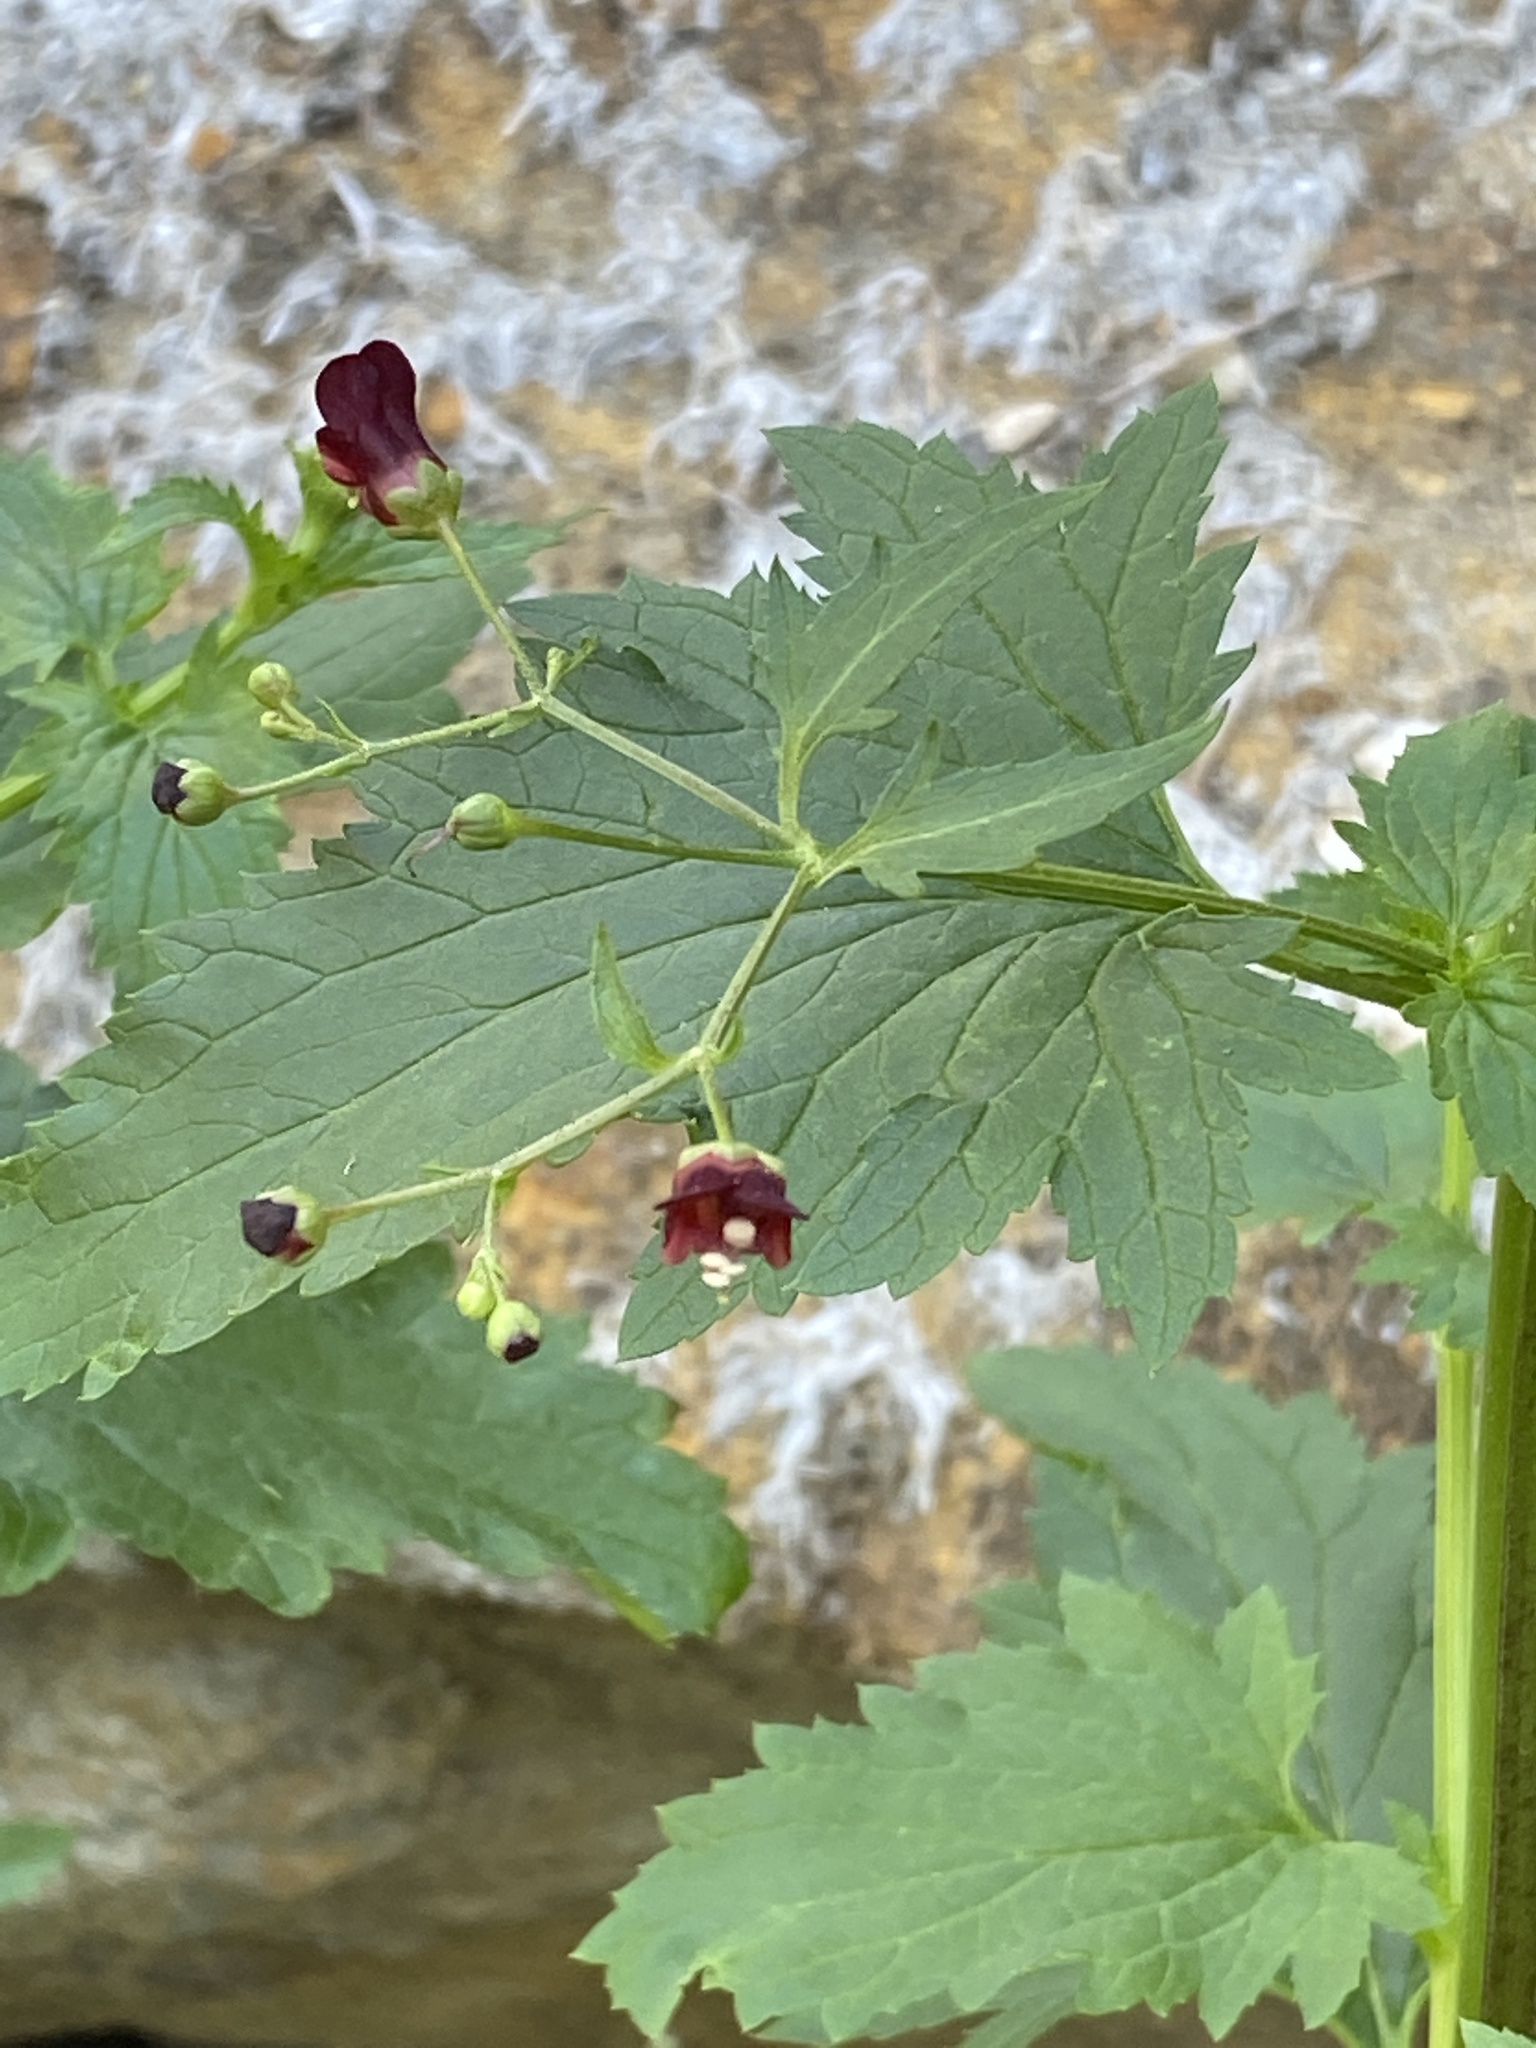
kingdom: Plantae
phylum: Tracheophyta
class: Magnoliopsida
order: Lamiales
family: Scrophulariaceae
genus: Scrophularia
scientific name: Scrophularia californica
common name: California figwort
